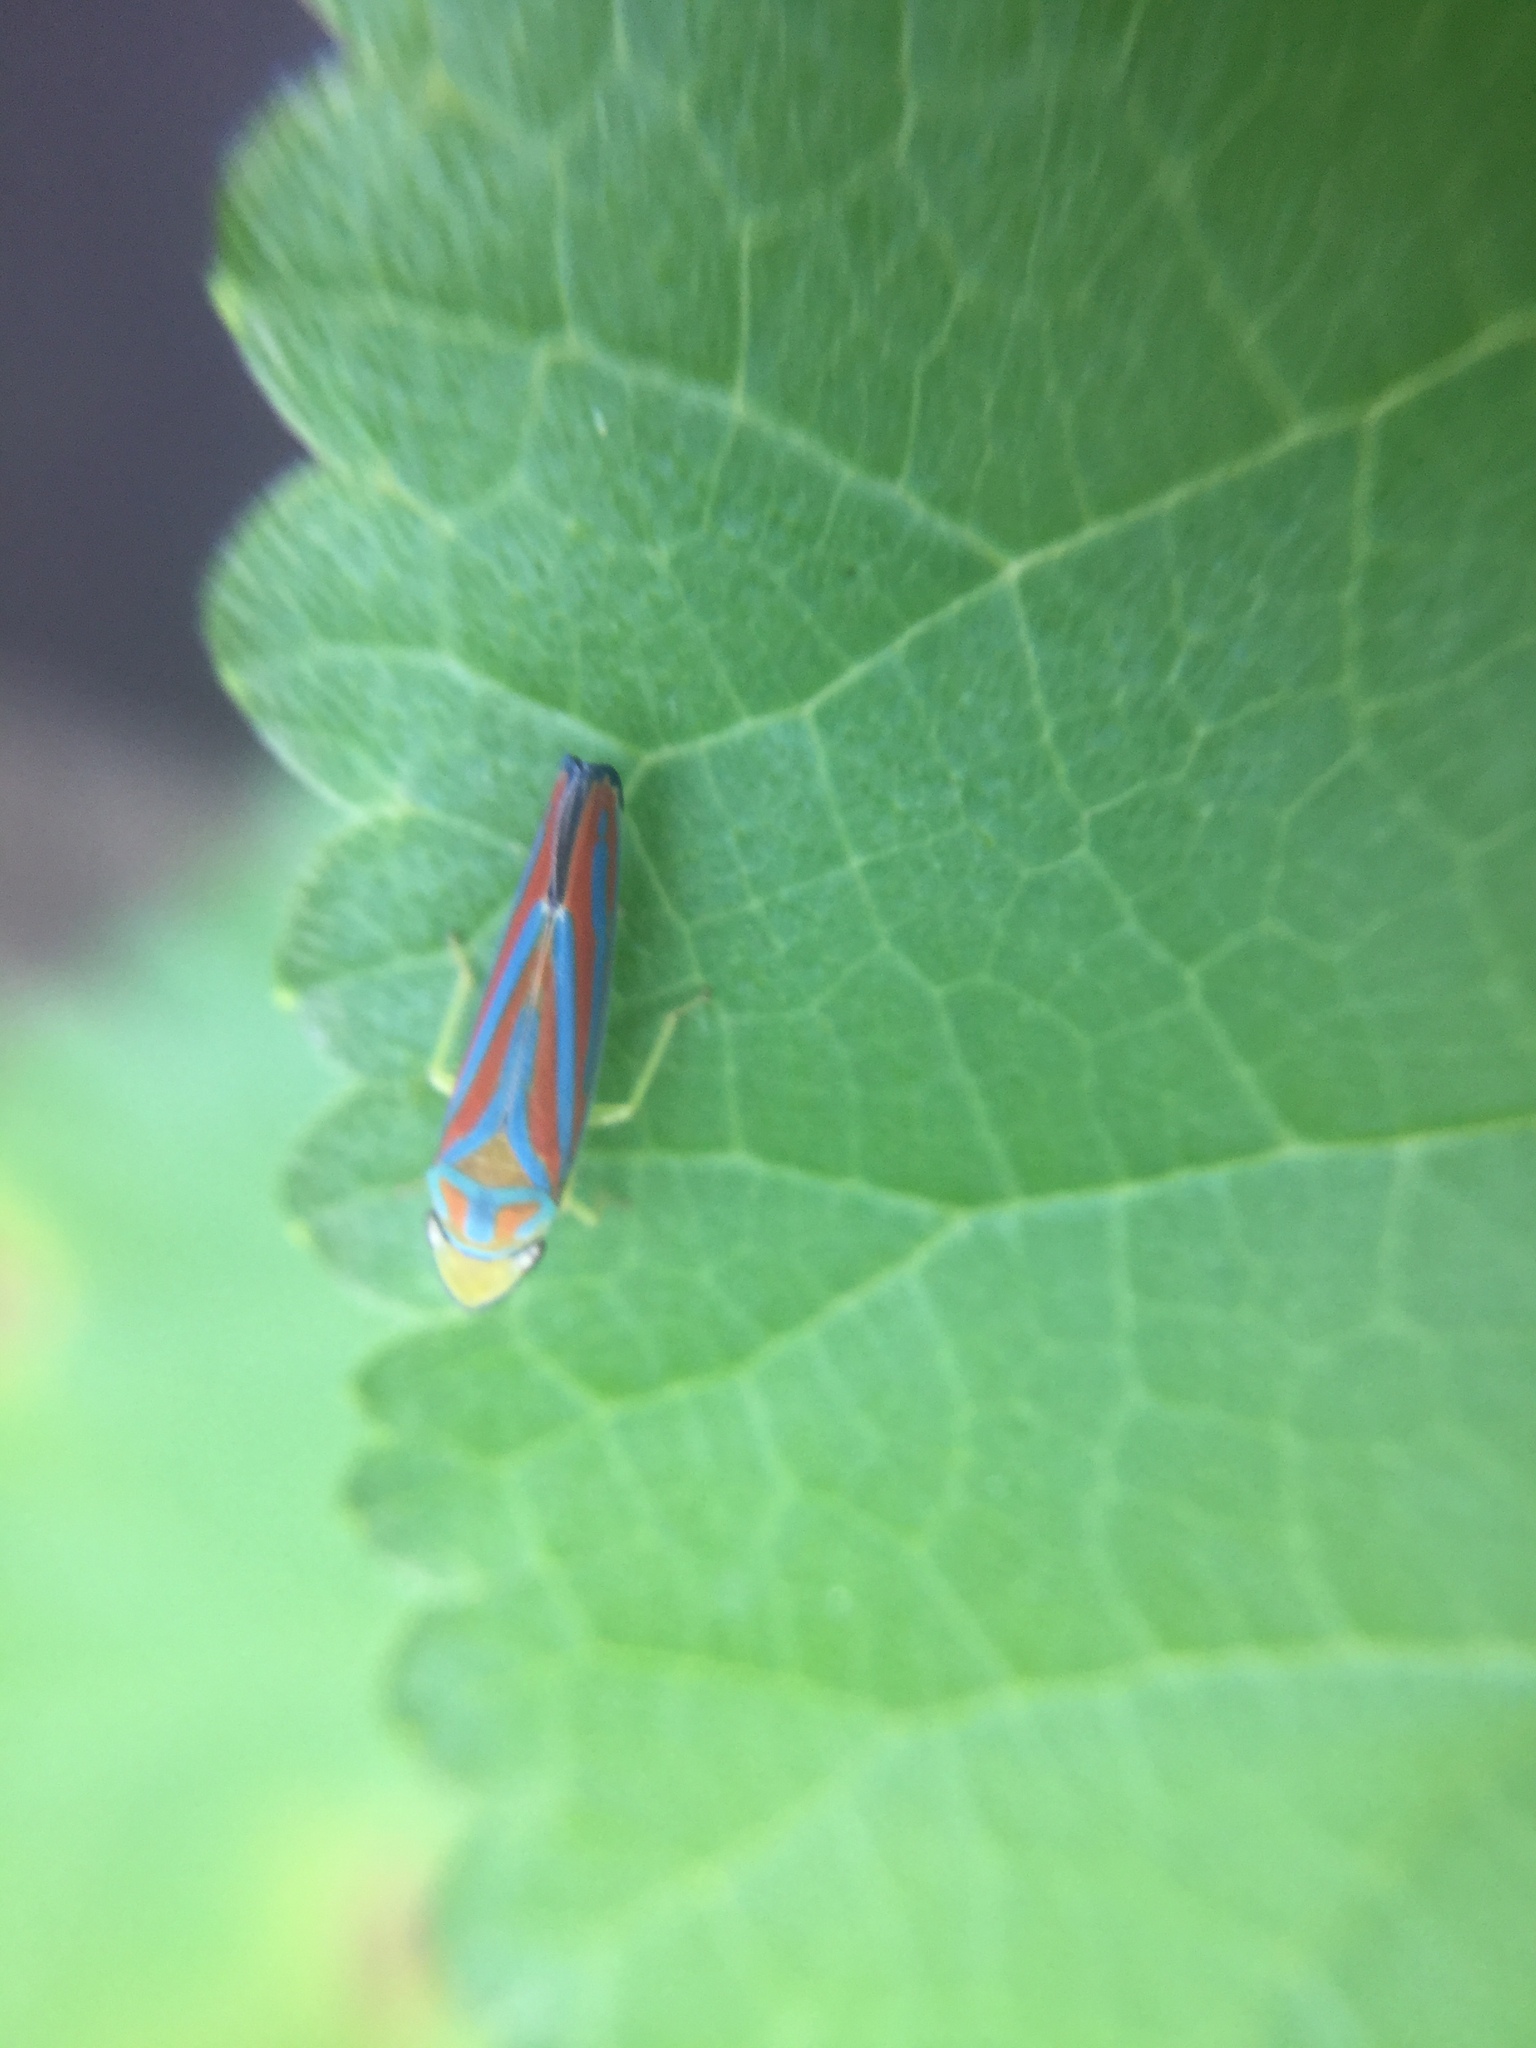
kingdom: Animalia
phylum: Arthropoda
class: Insecta
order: Hemiptera
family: Cicadellidae
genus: Graphocephala
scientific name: Graphocephala coccinea
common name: Candy-striped leafhopper
